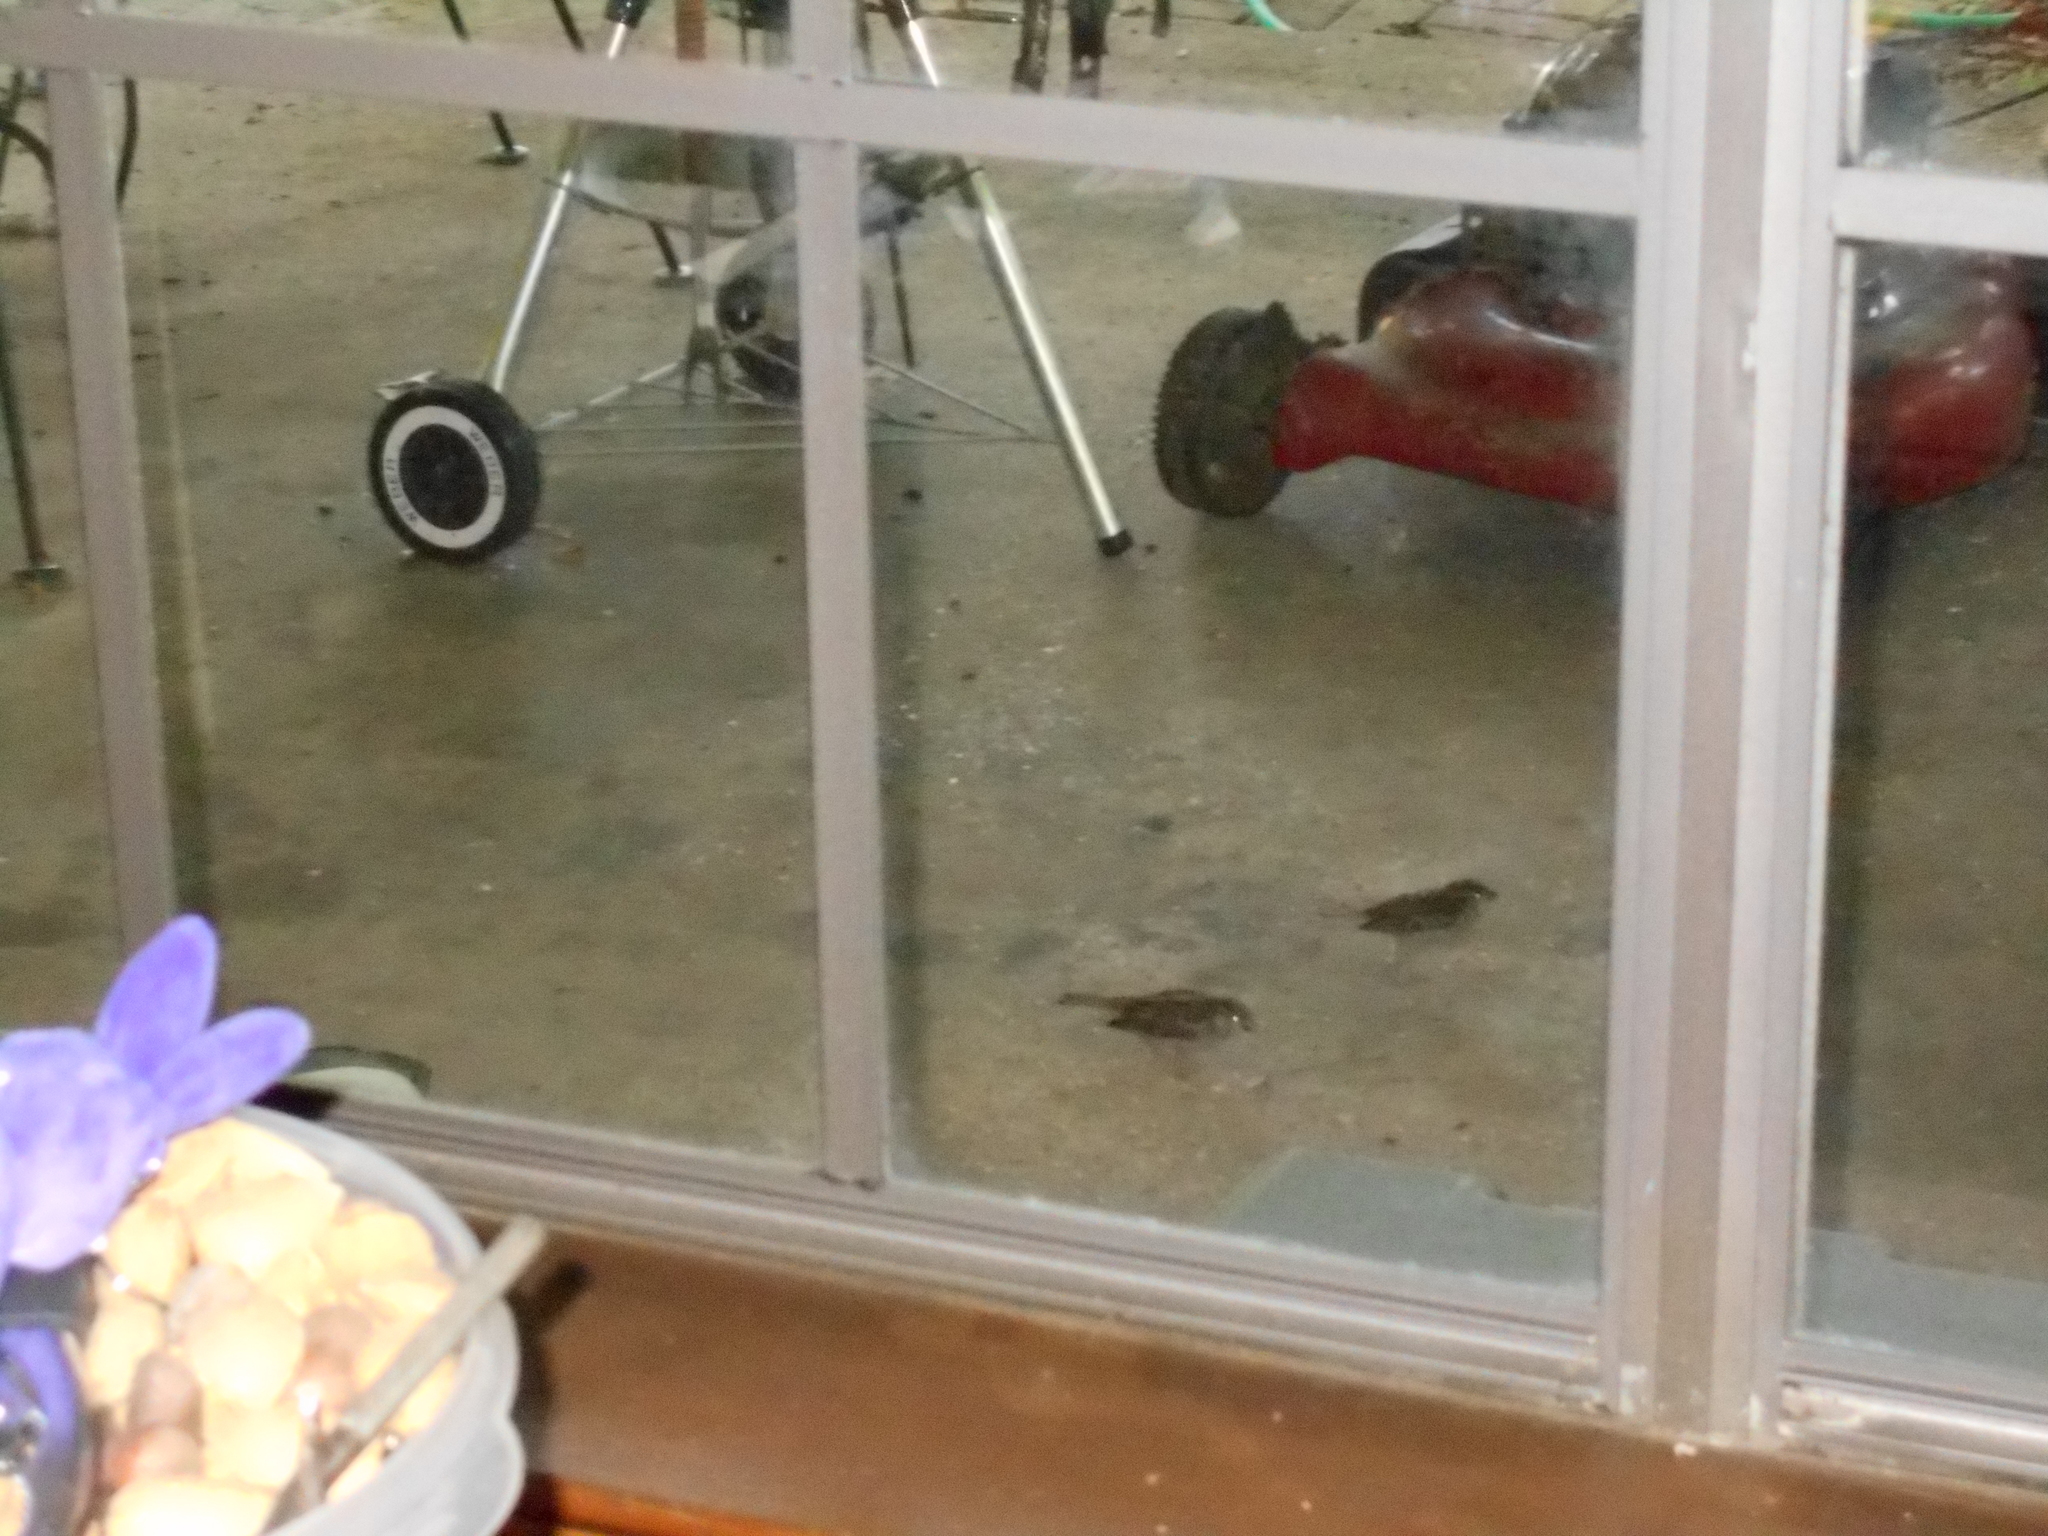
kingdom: Animalia
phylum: Chordata
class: Aves
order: Passeriformes
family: Passeridae
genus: Passer
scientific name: Passer domesticus
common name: House sparrow
